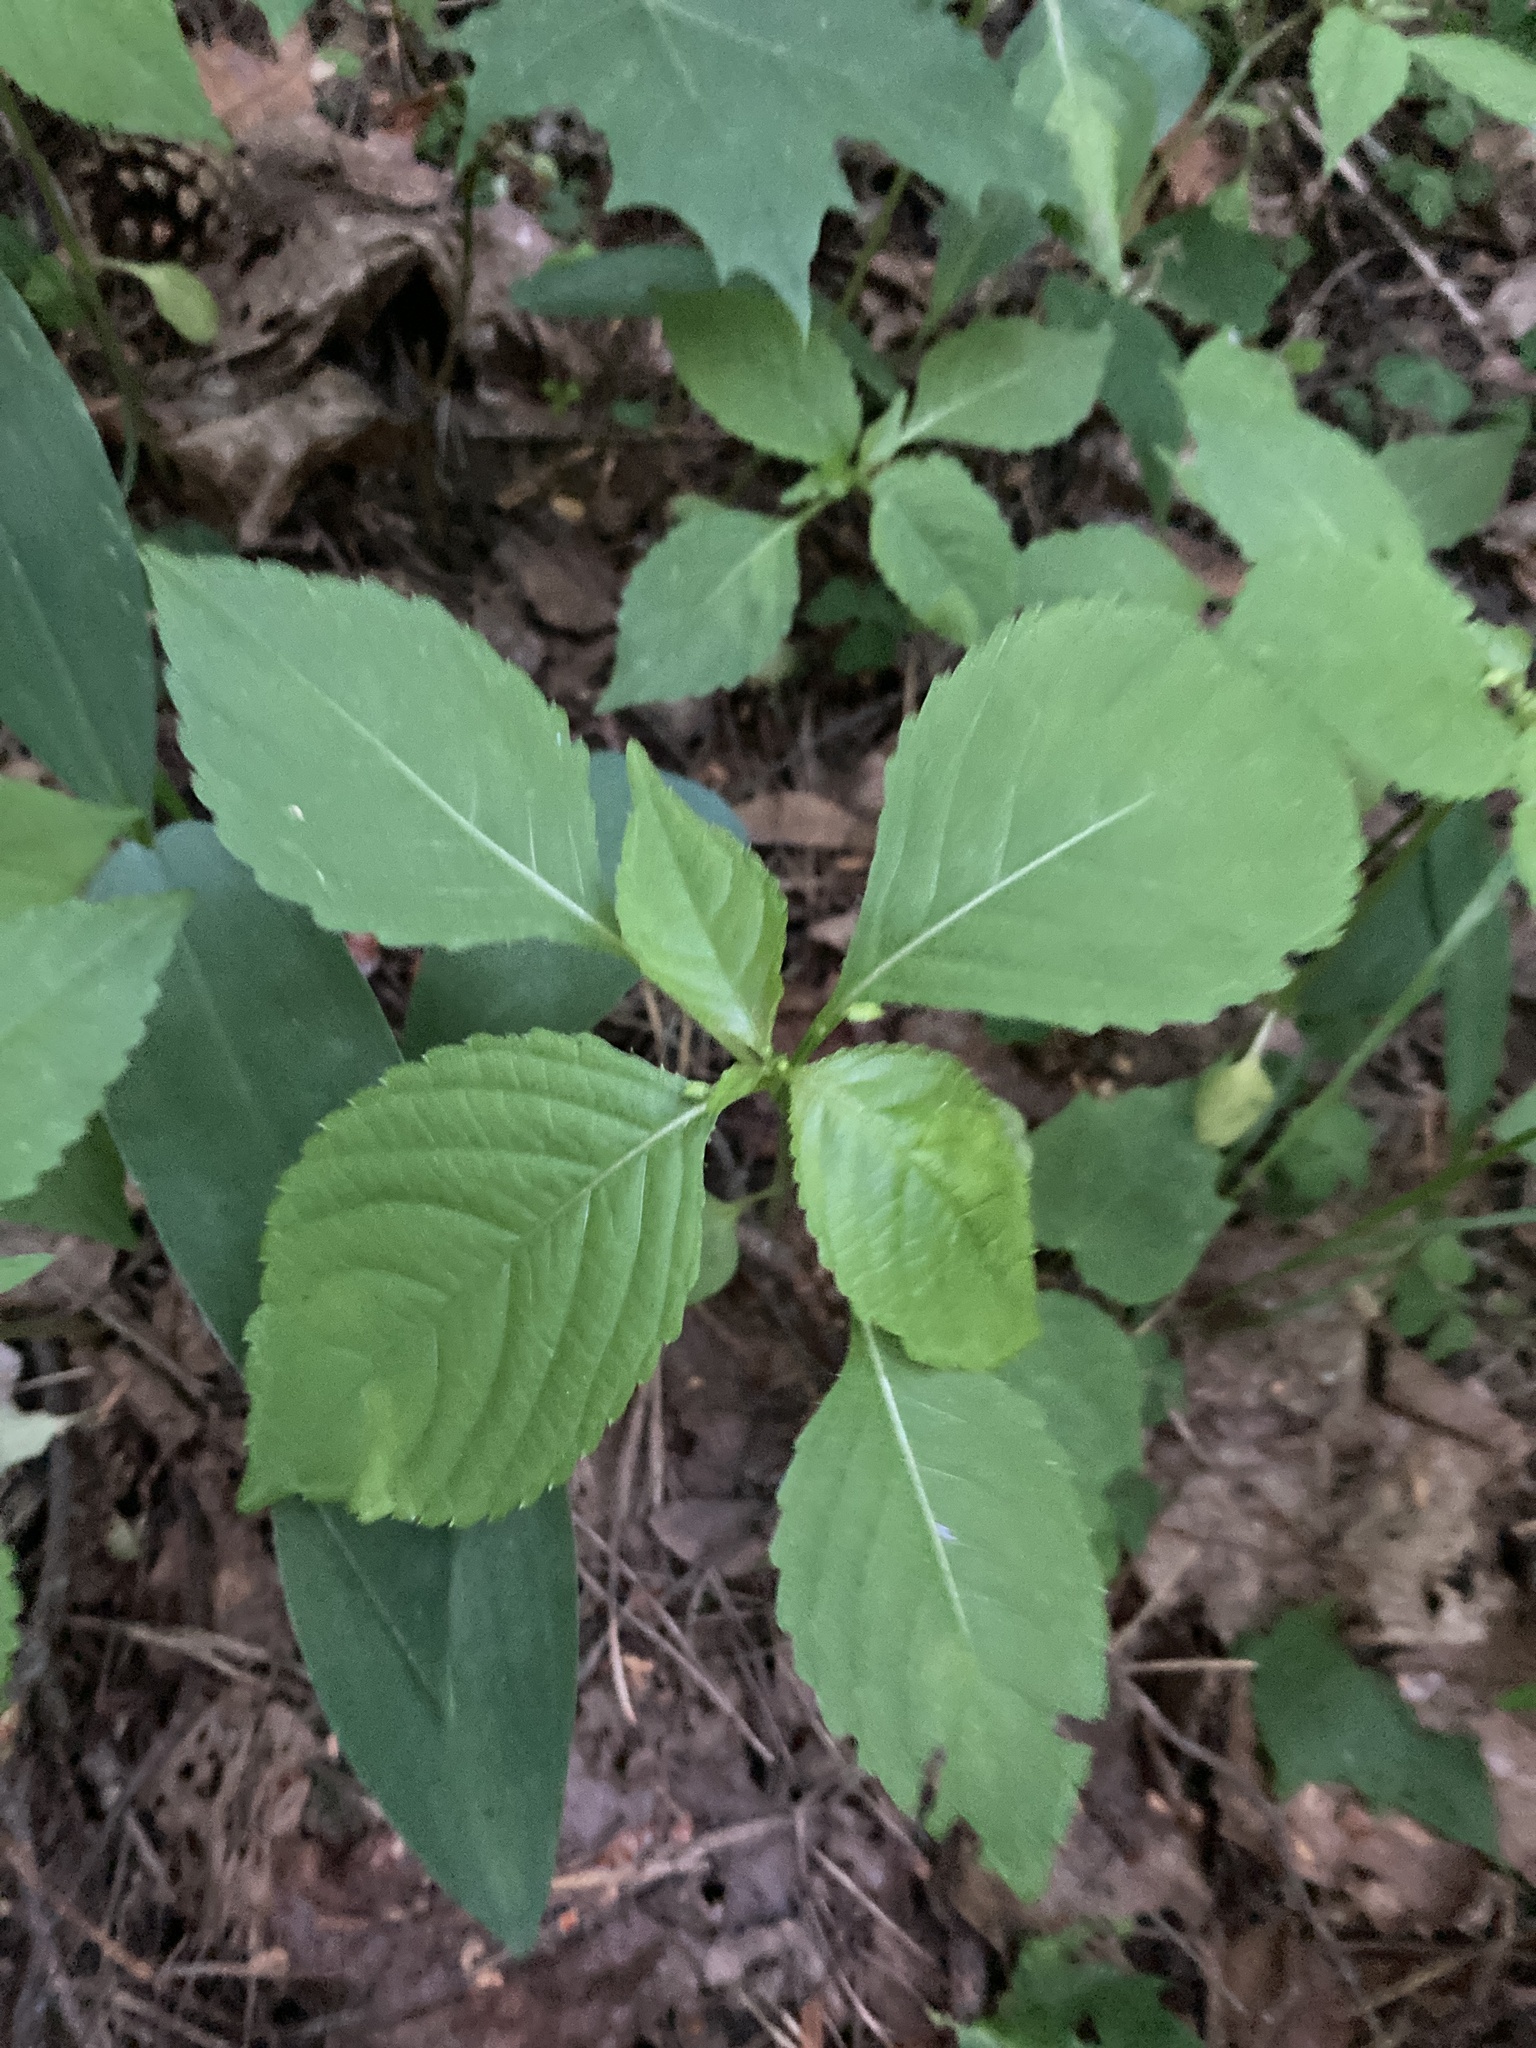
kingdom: Plantae
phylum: Tracheophyta
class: Magnoliopsida
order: Ericales
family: Balsaminaceae
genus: Impatiens
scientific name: Impatiens parviflora
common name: Small balsam
